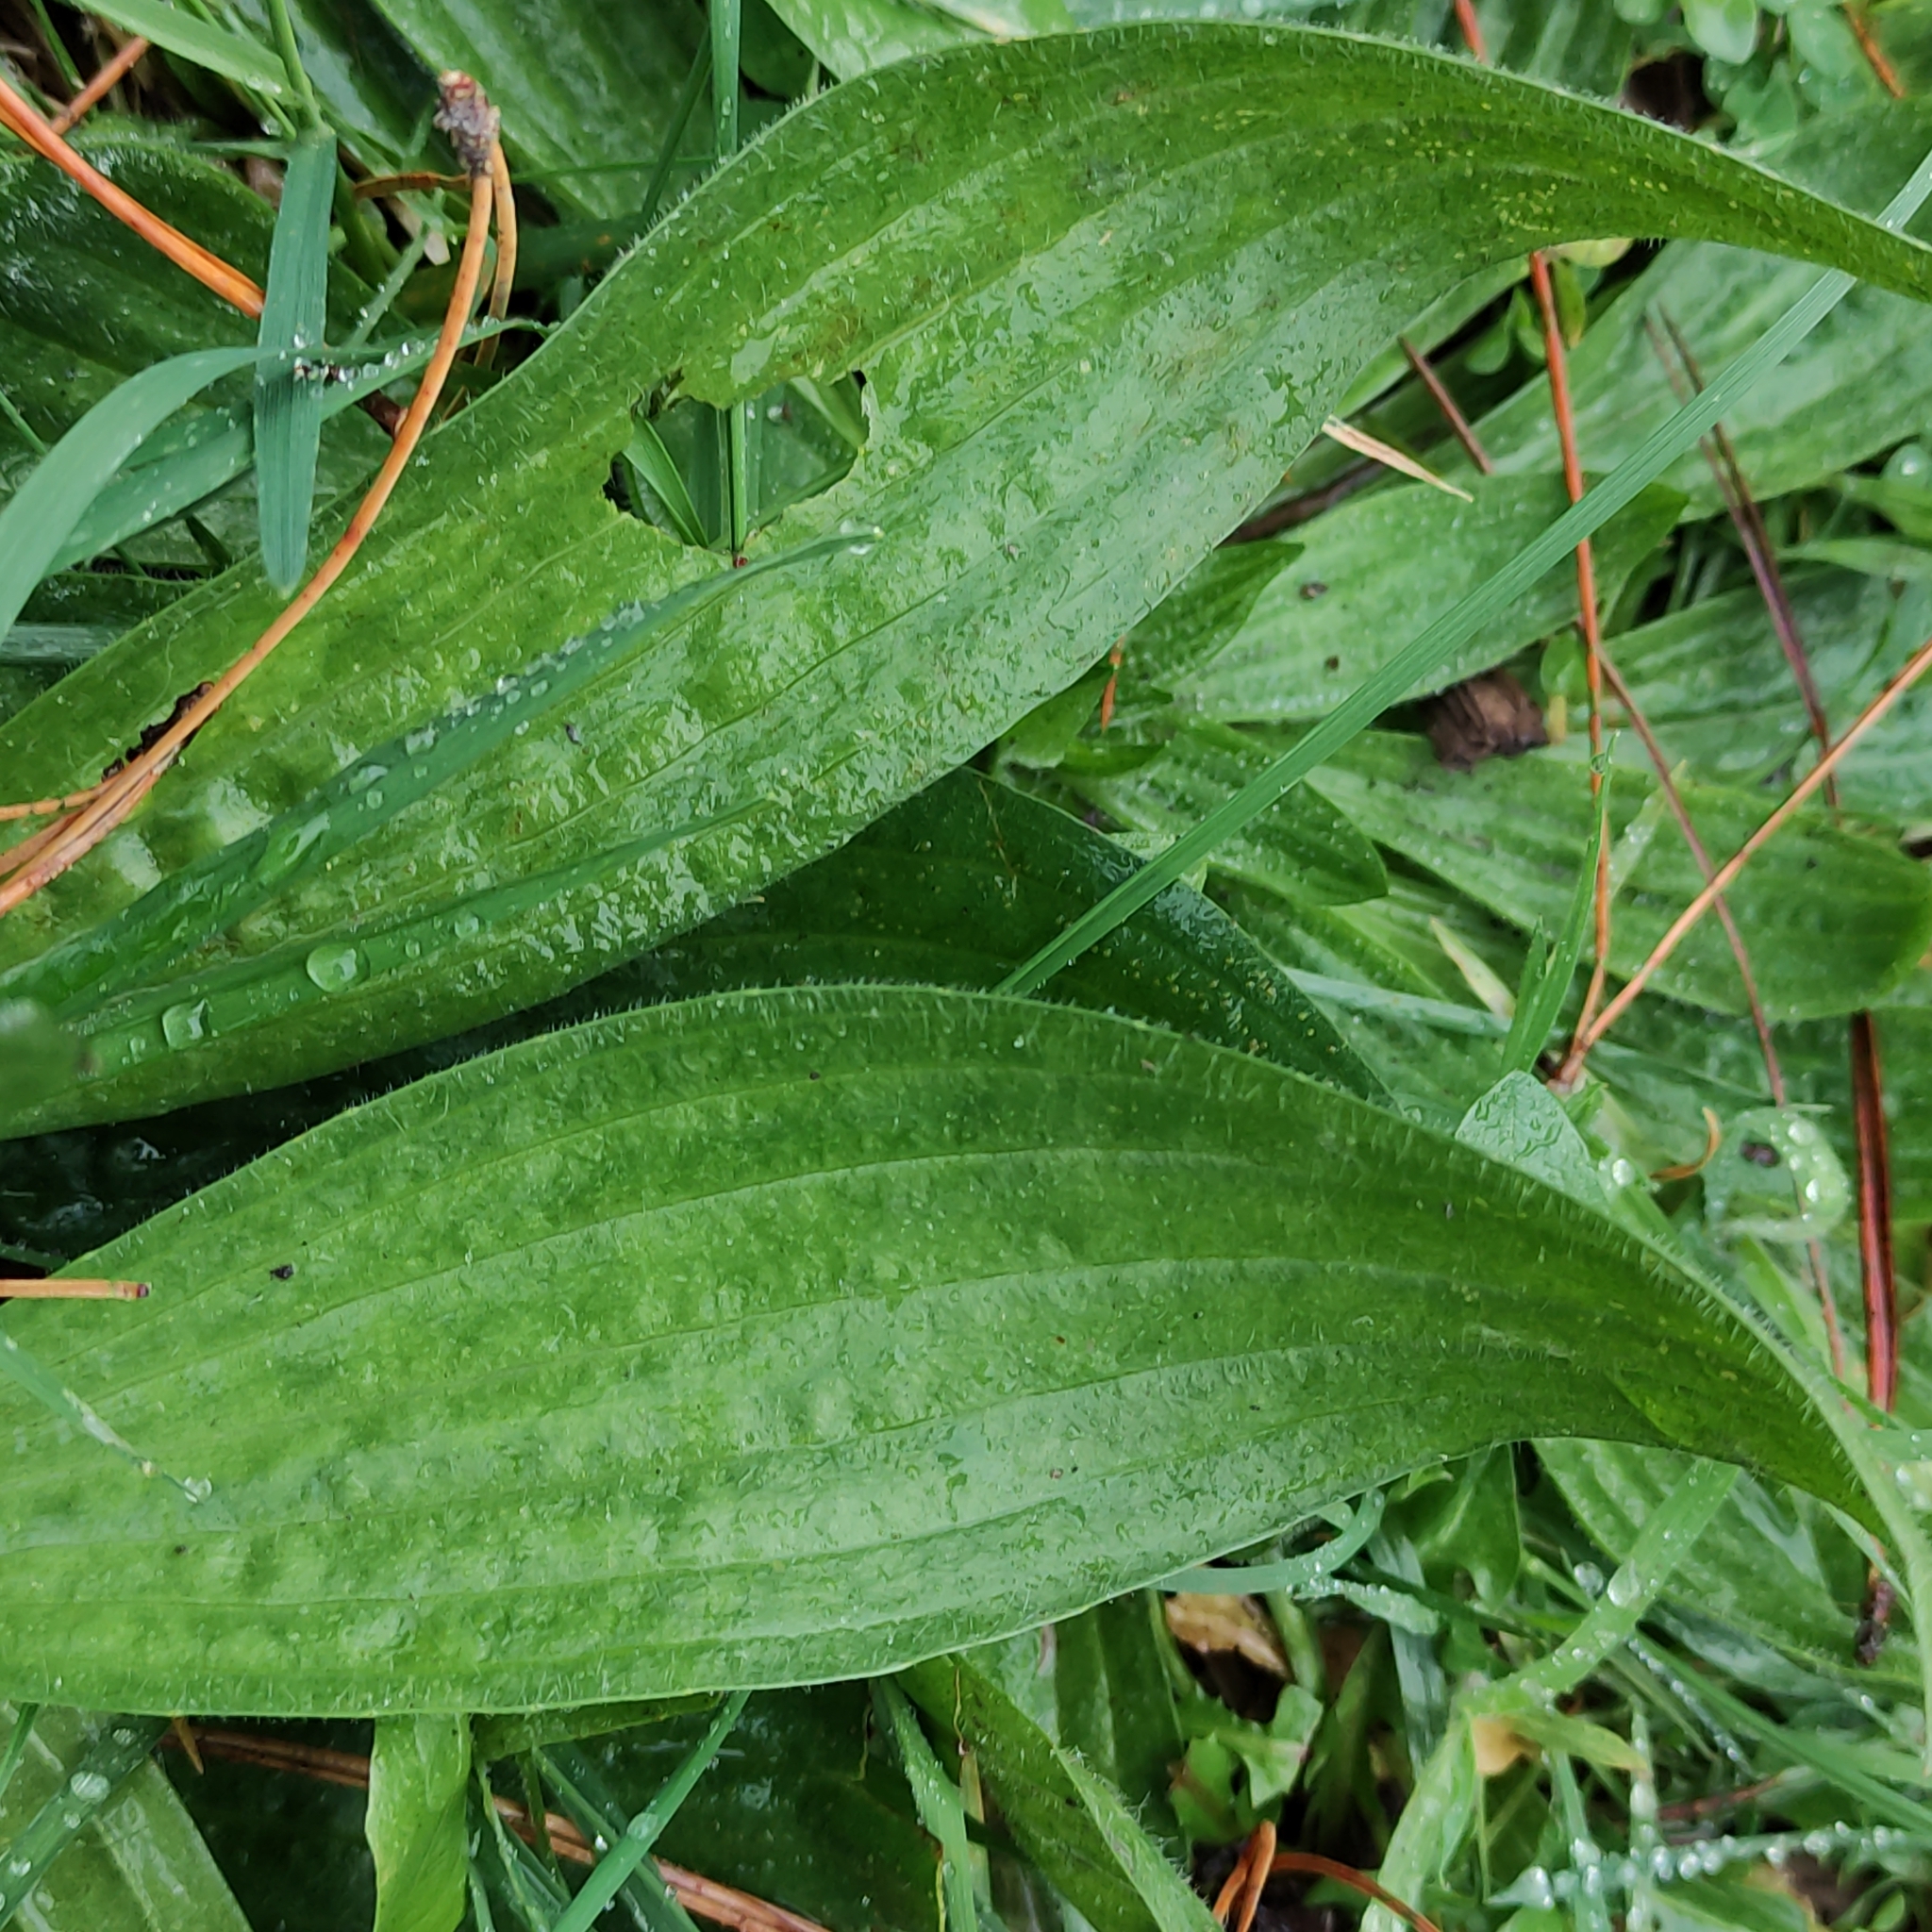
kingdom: Plantae
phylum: Tracheophyta
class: Magnoliopsida
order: Lamiales
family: Plantaginaceae
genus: Plantago
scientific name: Plantago lanceolata
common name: Ribwort plantain
